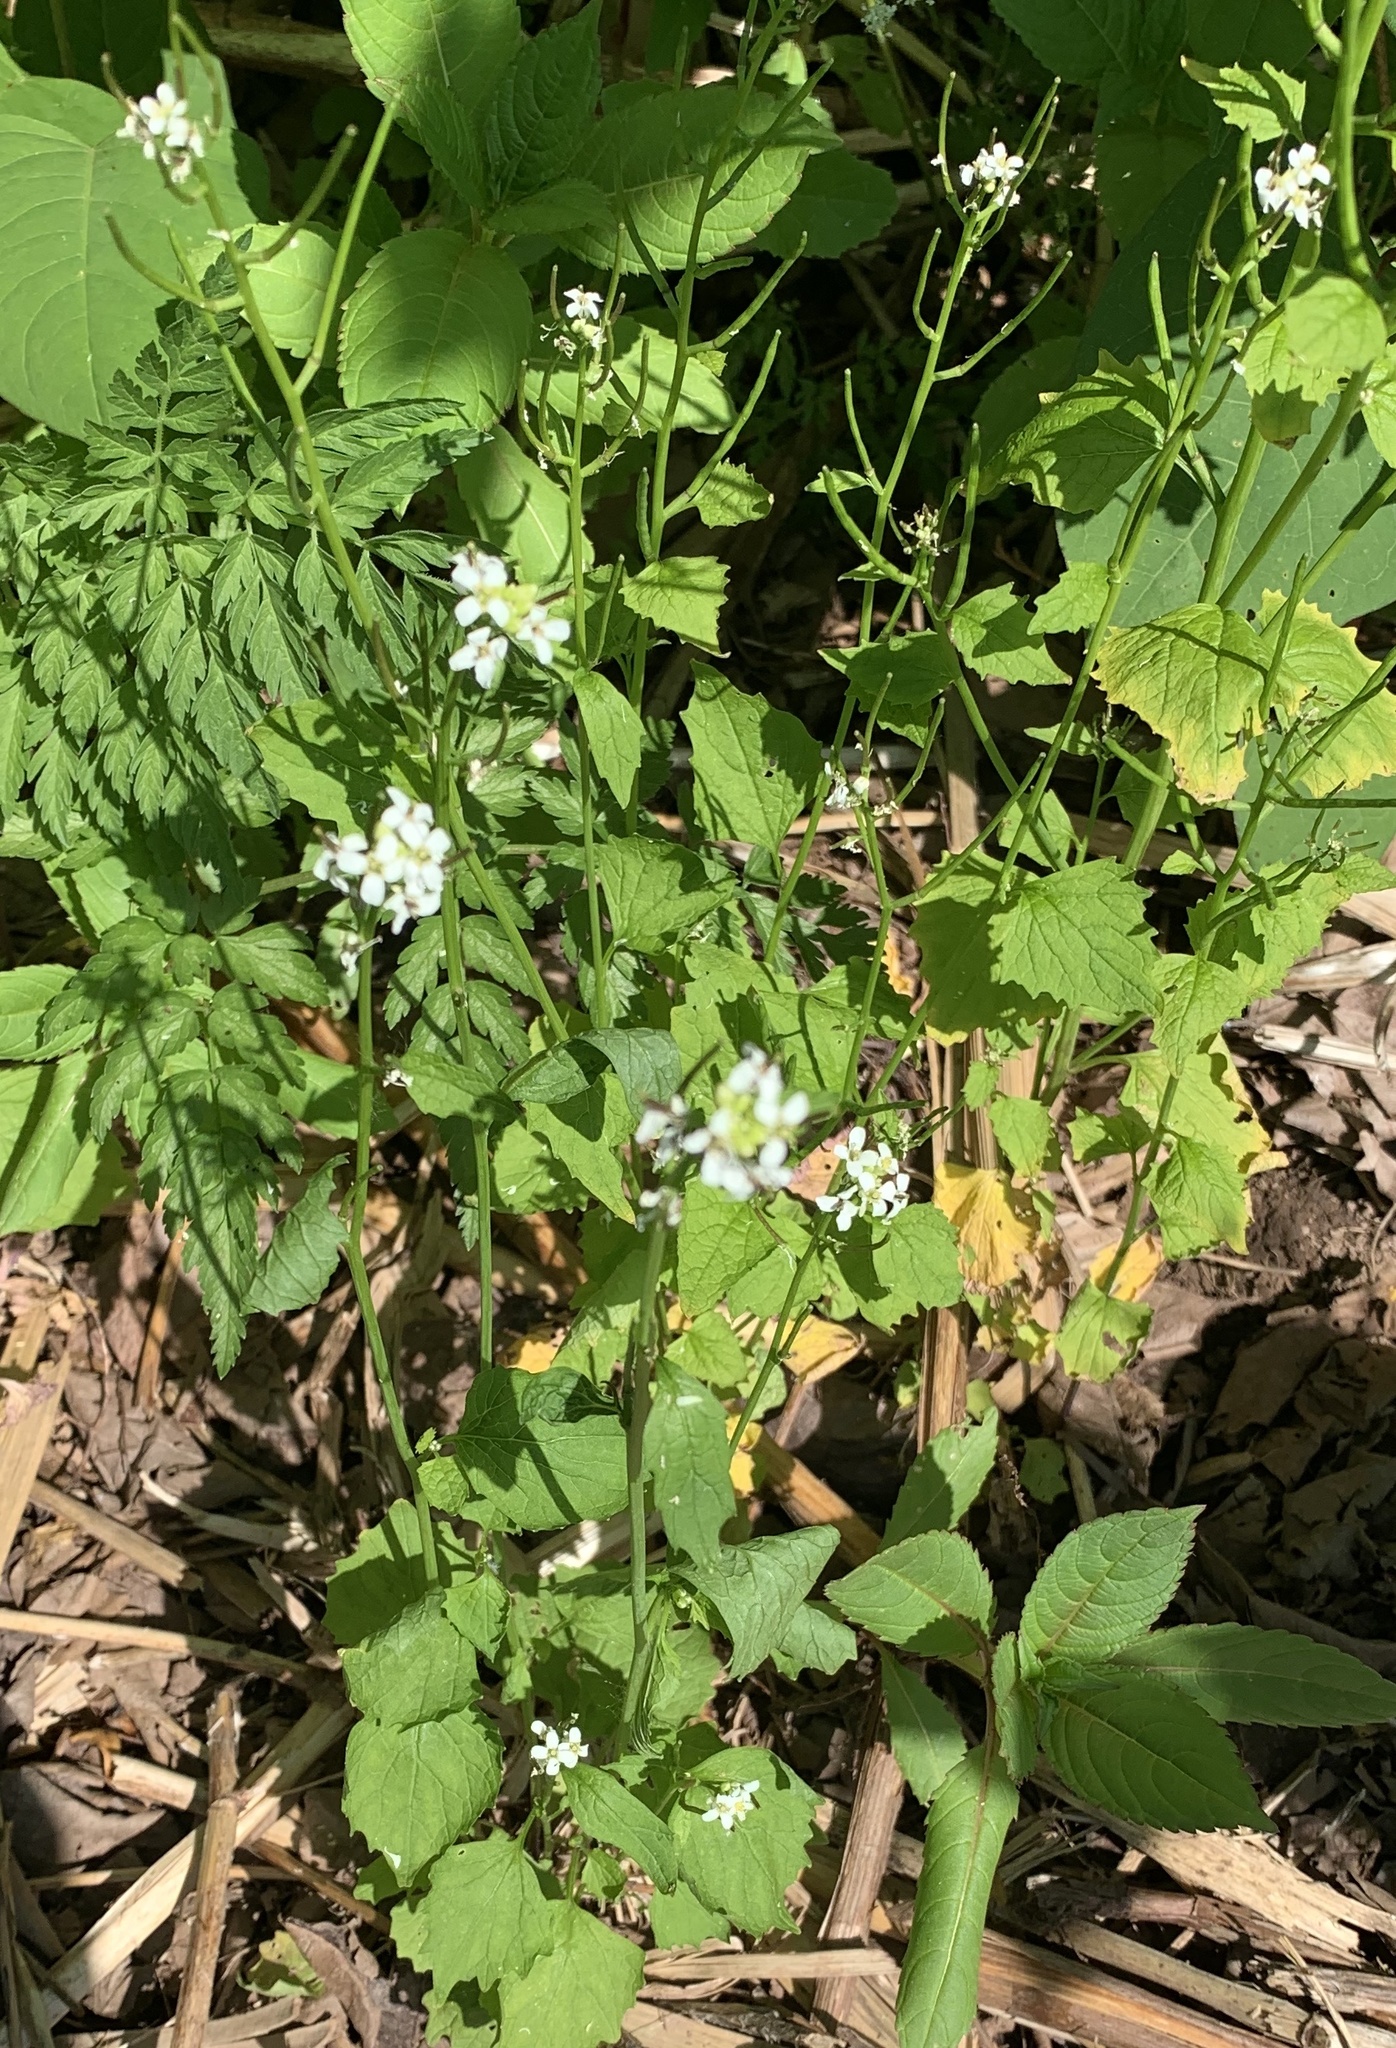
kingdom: Plantae
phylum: Tracheophyta
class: Magnoliopsida
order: Brassicales
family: Brassicaceae
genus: Alliaria
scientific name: Alliaria petiolata
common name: Garlic mustard
